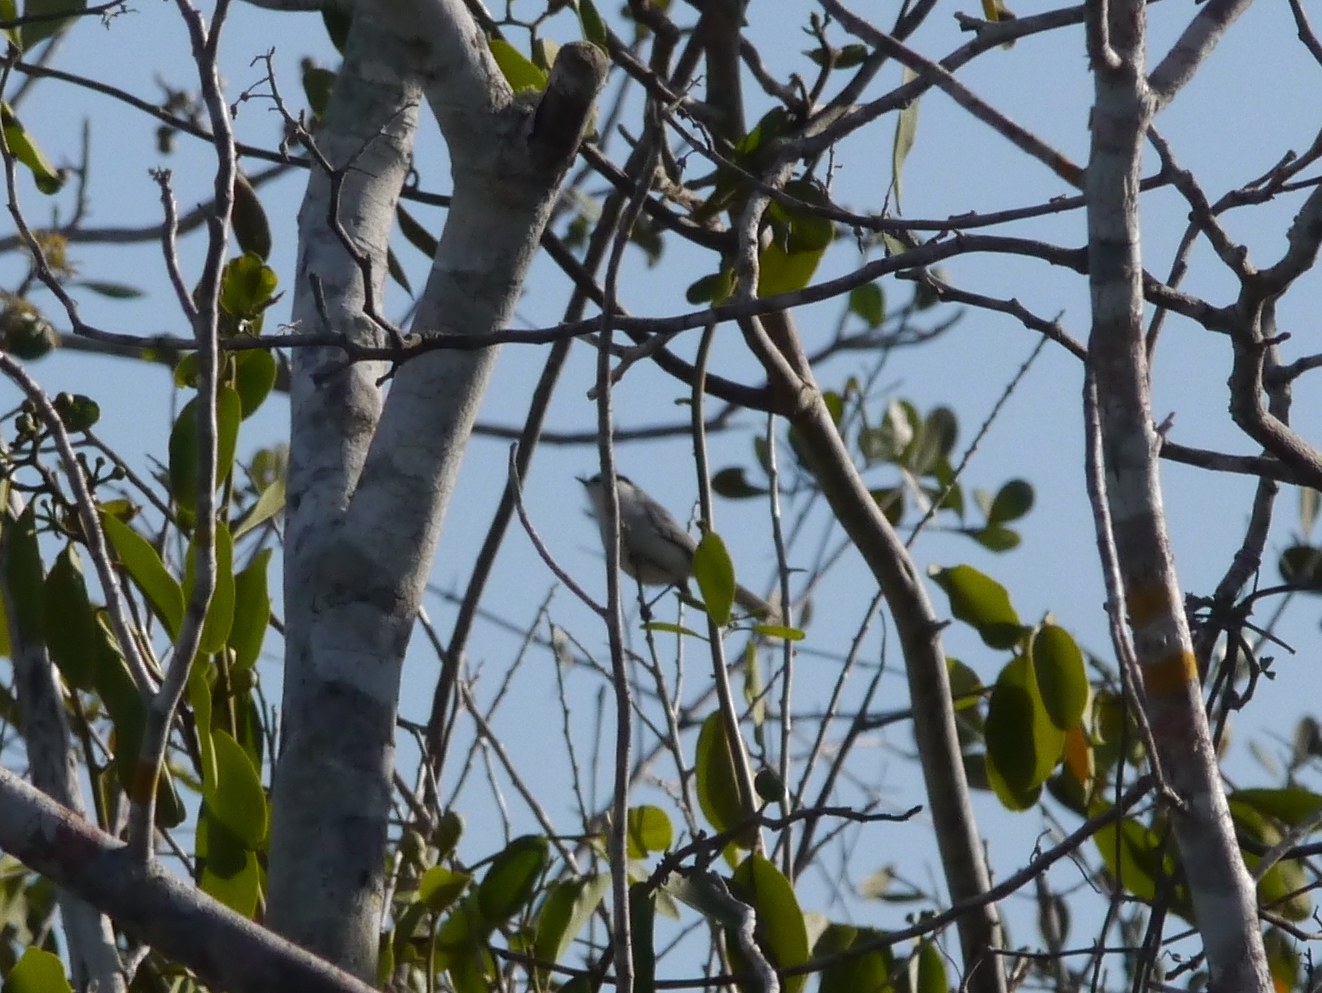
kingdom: Animalia
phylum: Chordata
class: Aves
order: Passeriformes
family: Polioptilidae
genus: Polioptila
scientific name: Polioptila albiventris
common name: Yucatan gnatcatcher
